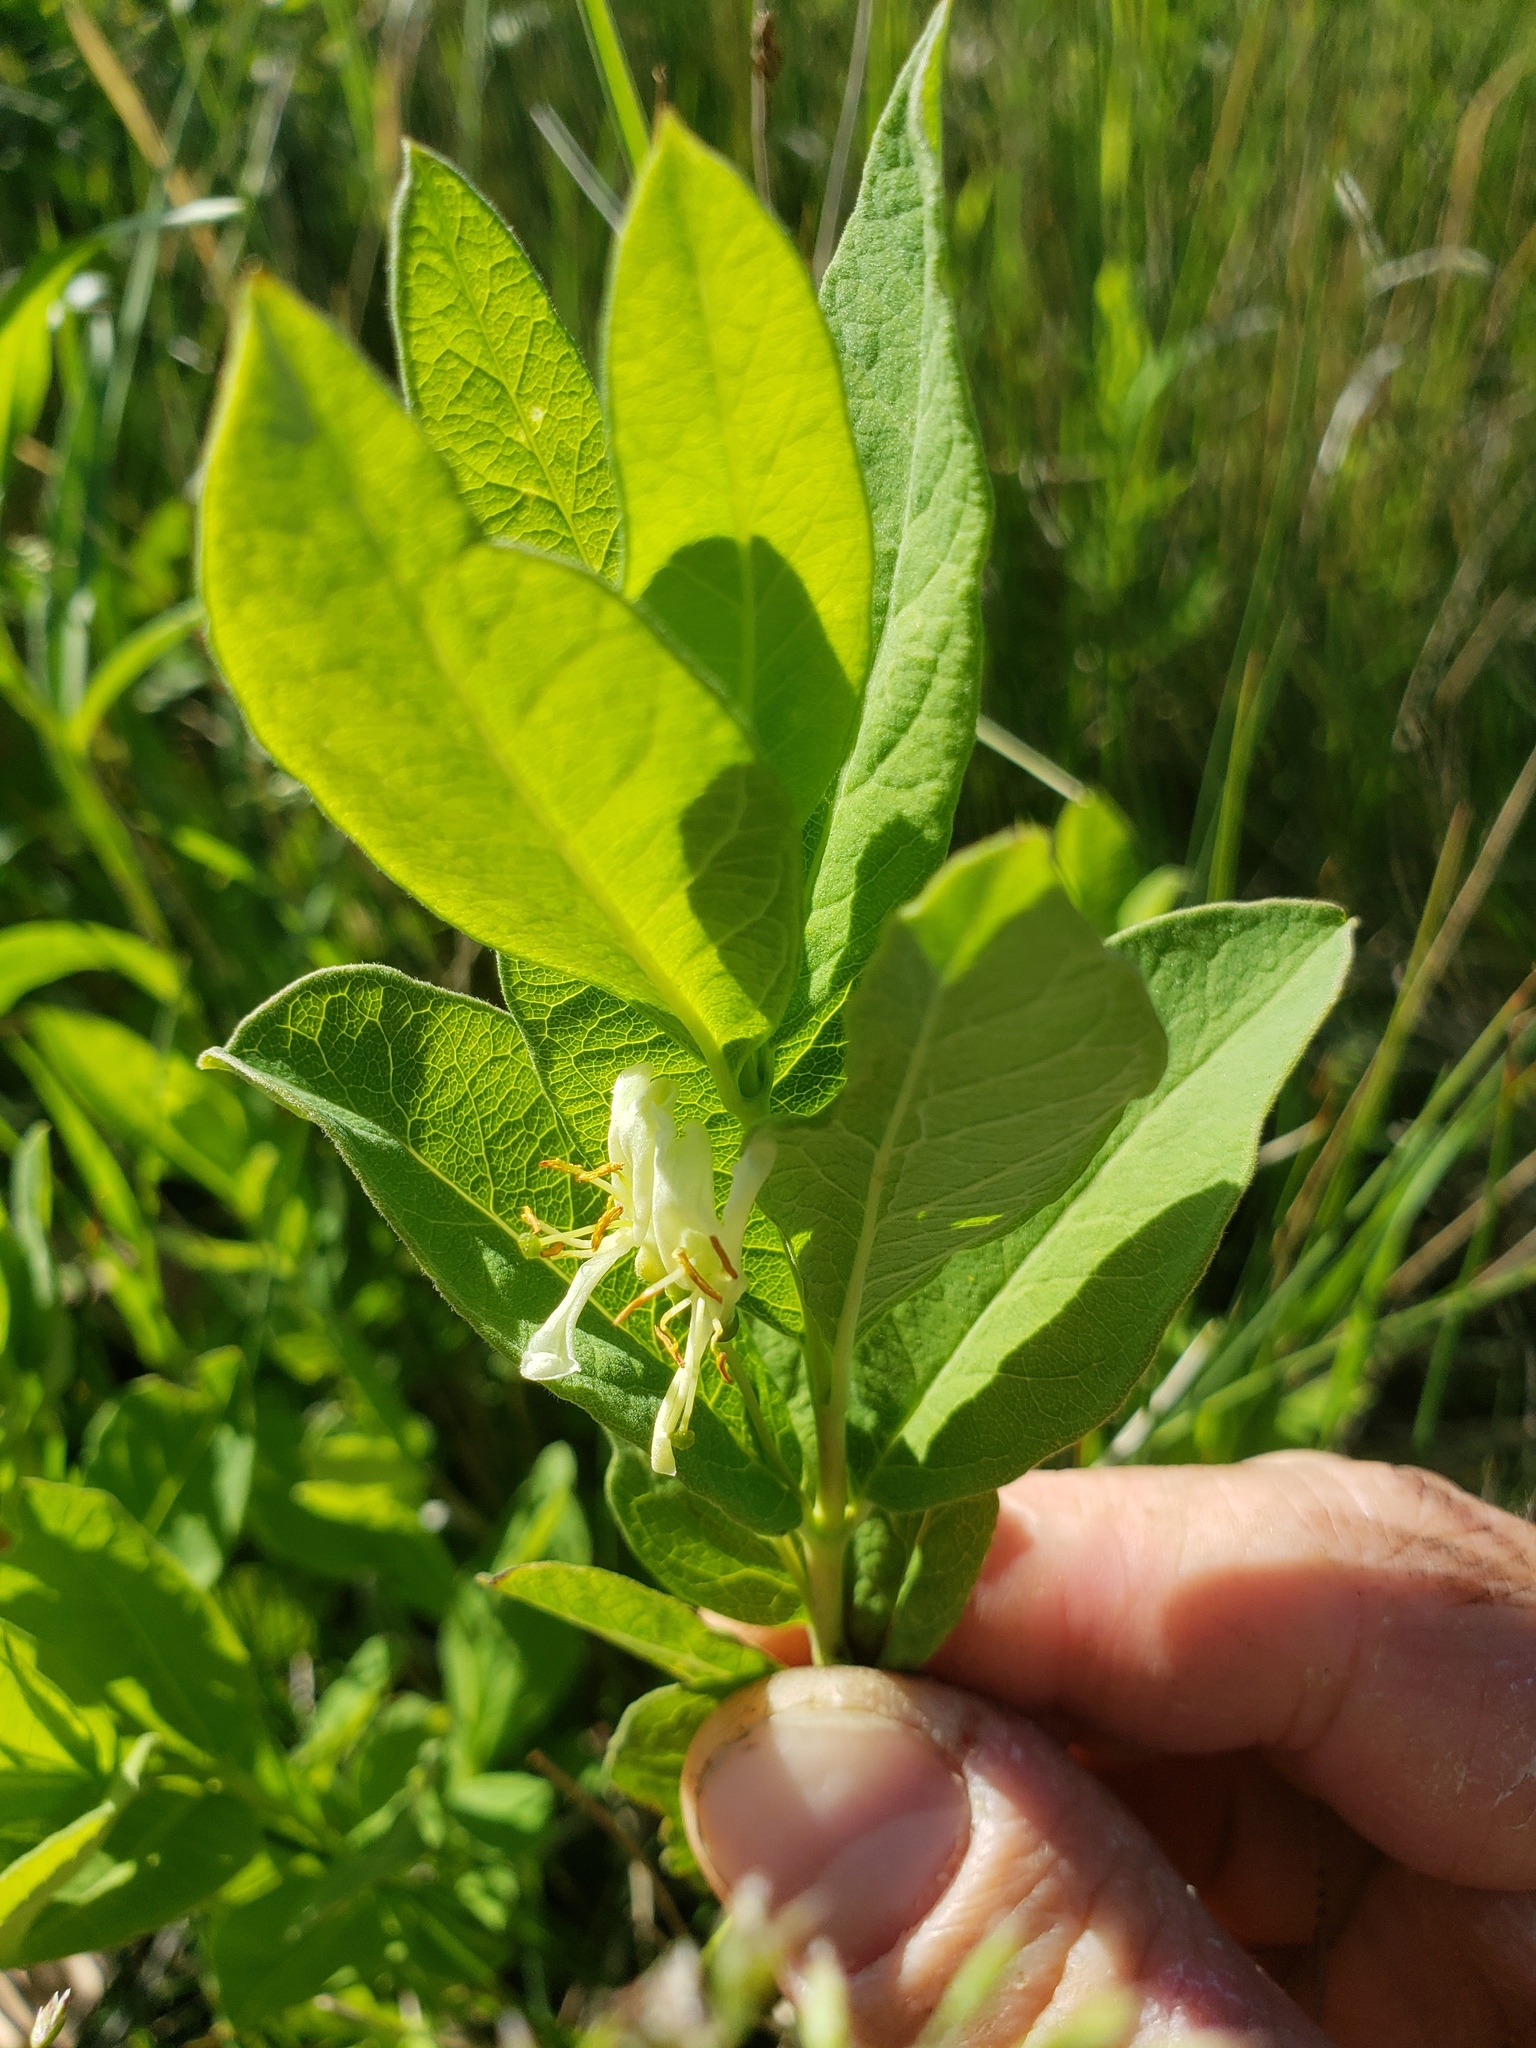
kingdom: Plantae
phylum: Tracheophyta
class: Magnoliopsida
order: Dipsacales
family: Caprifoliaceae
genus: Lonicera
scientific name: Lonicera oblongifolia
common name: Swamp fly honeysuckle
